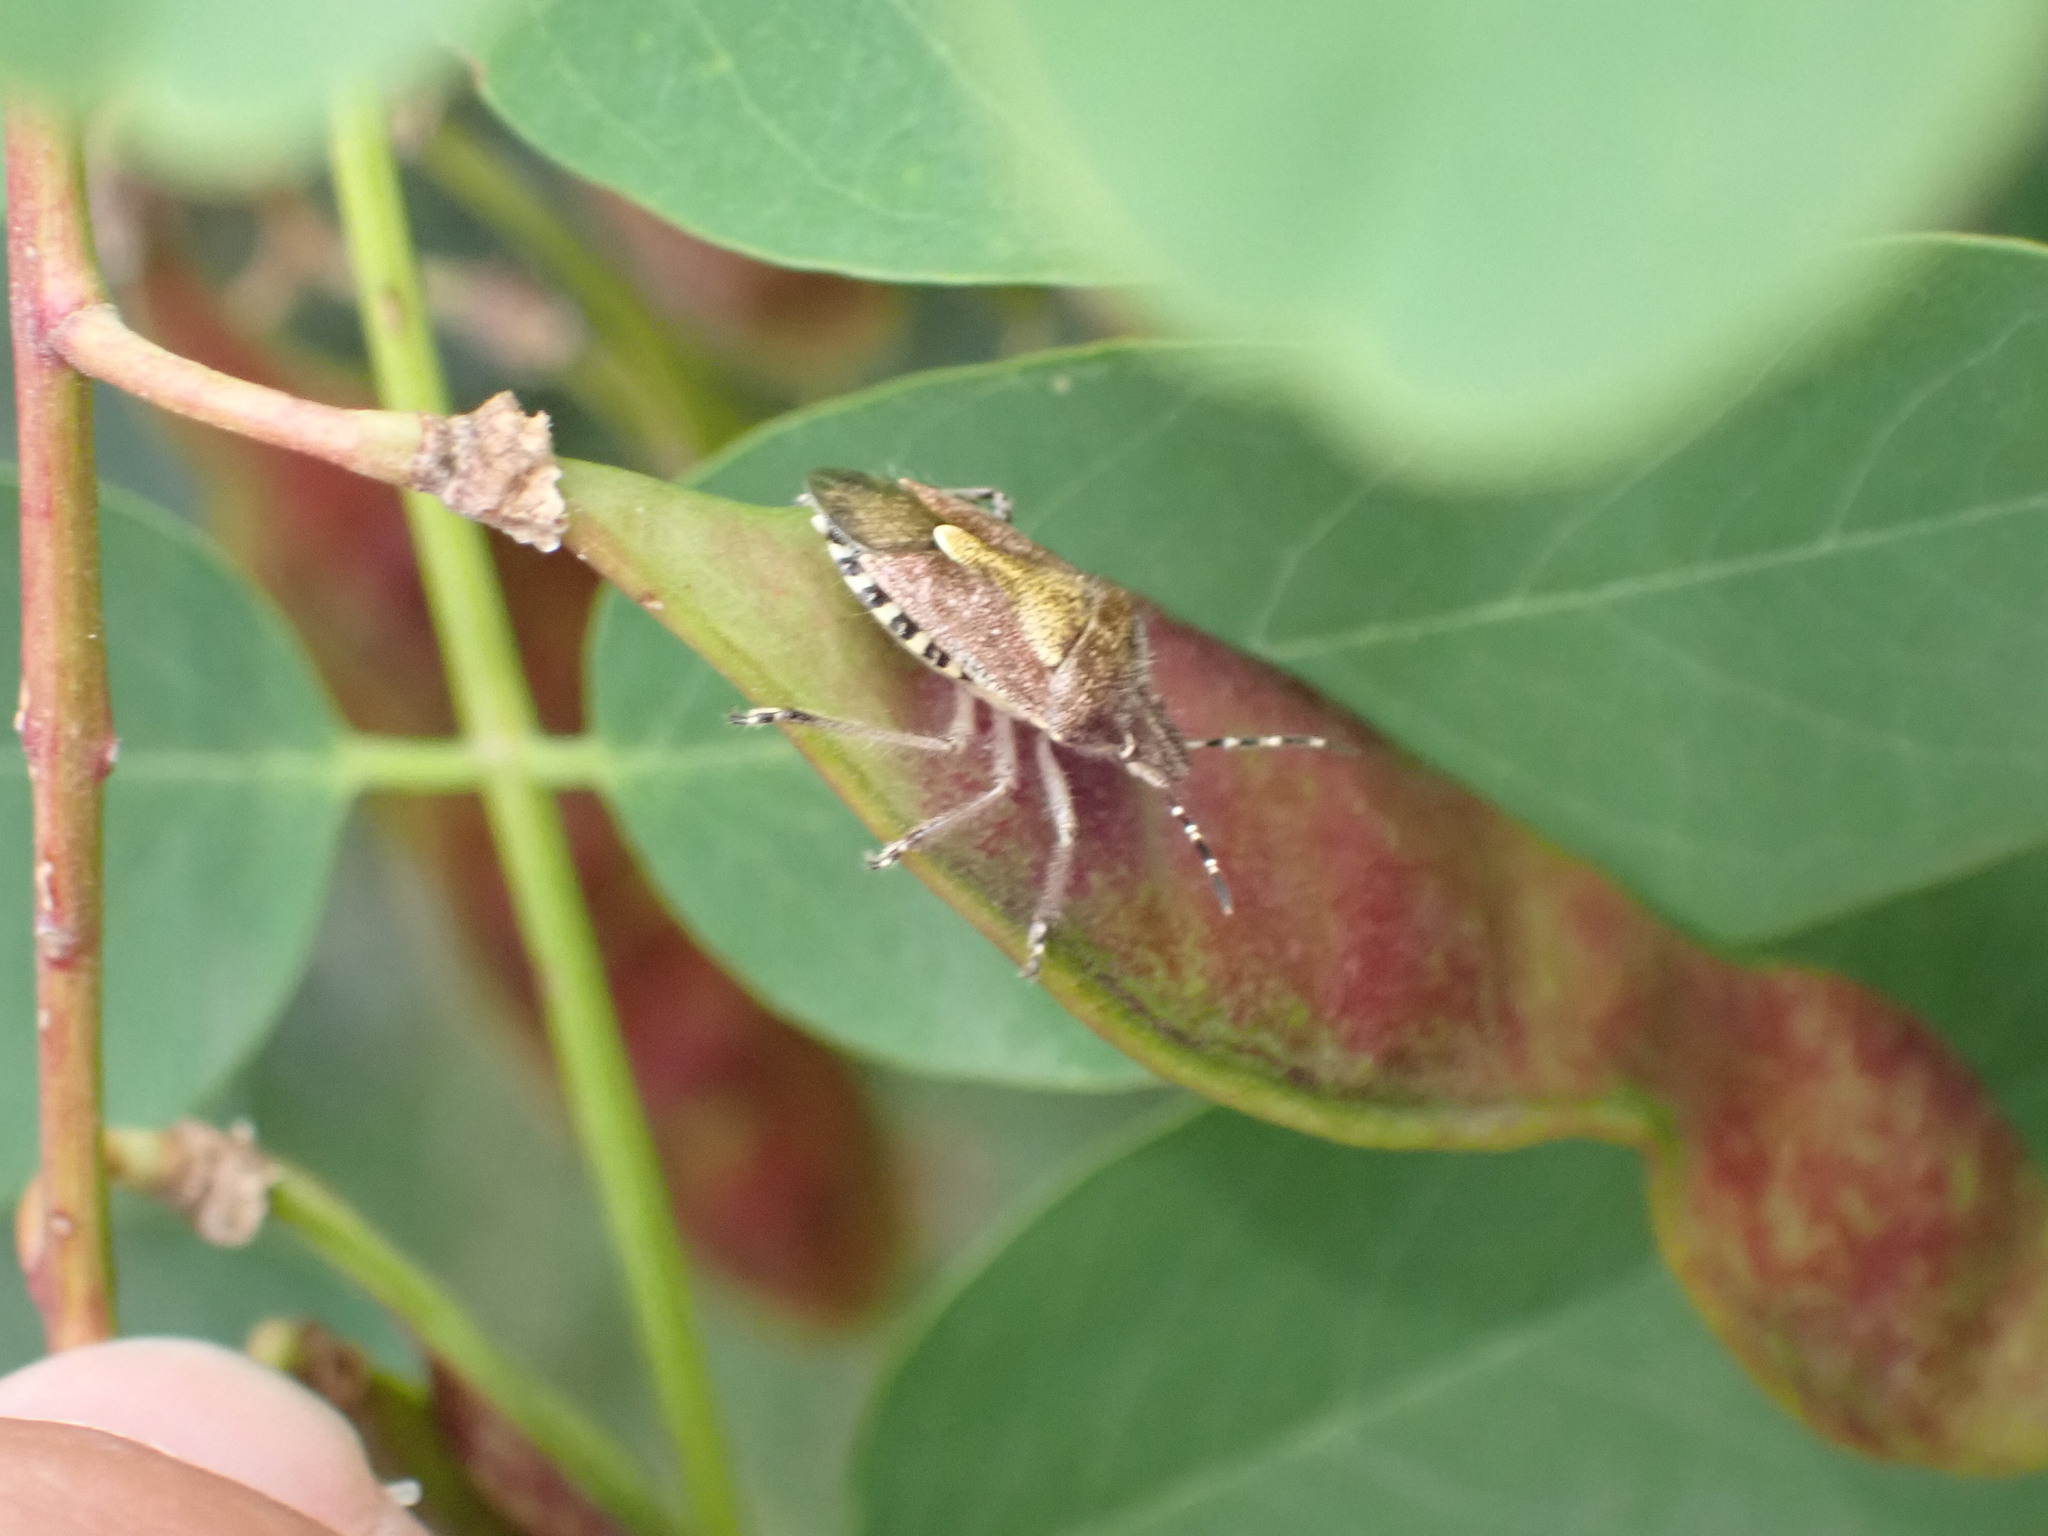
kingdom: Animalia
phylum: Arthropoda
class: Insecta
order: Hemiptera
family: Pentatomidae
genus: Dolycoris
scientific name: Dolycoris baccarum
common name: Sloe bug
